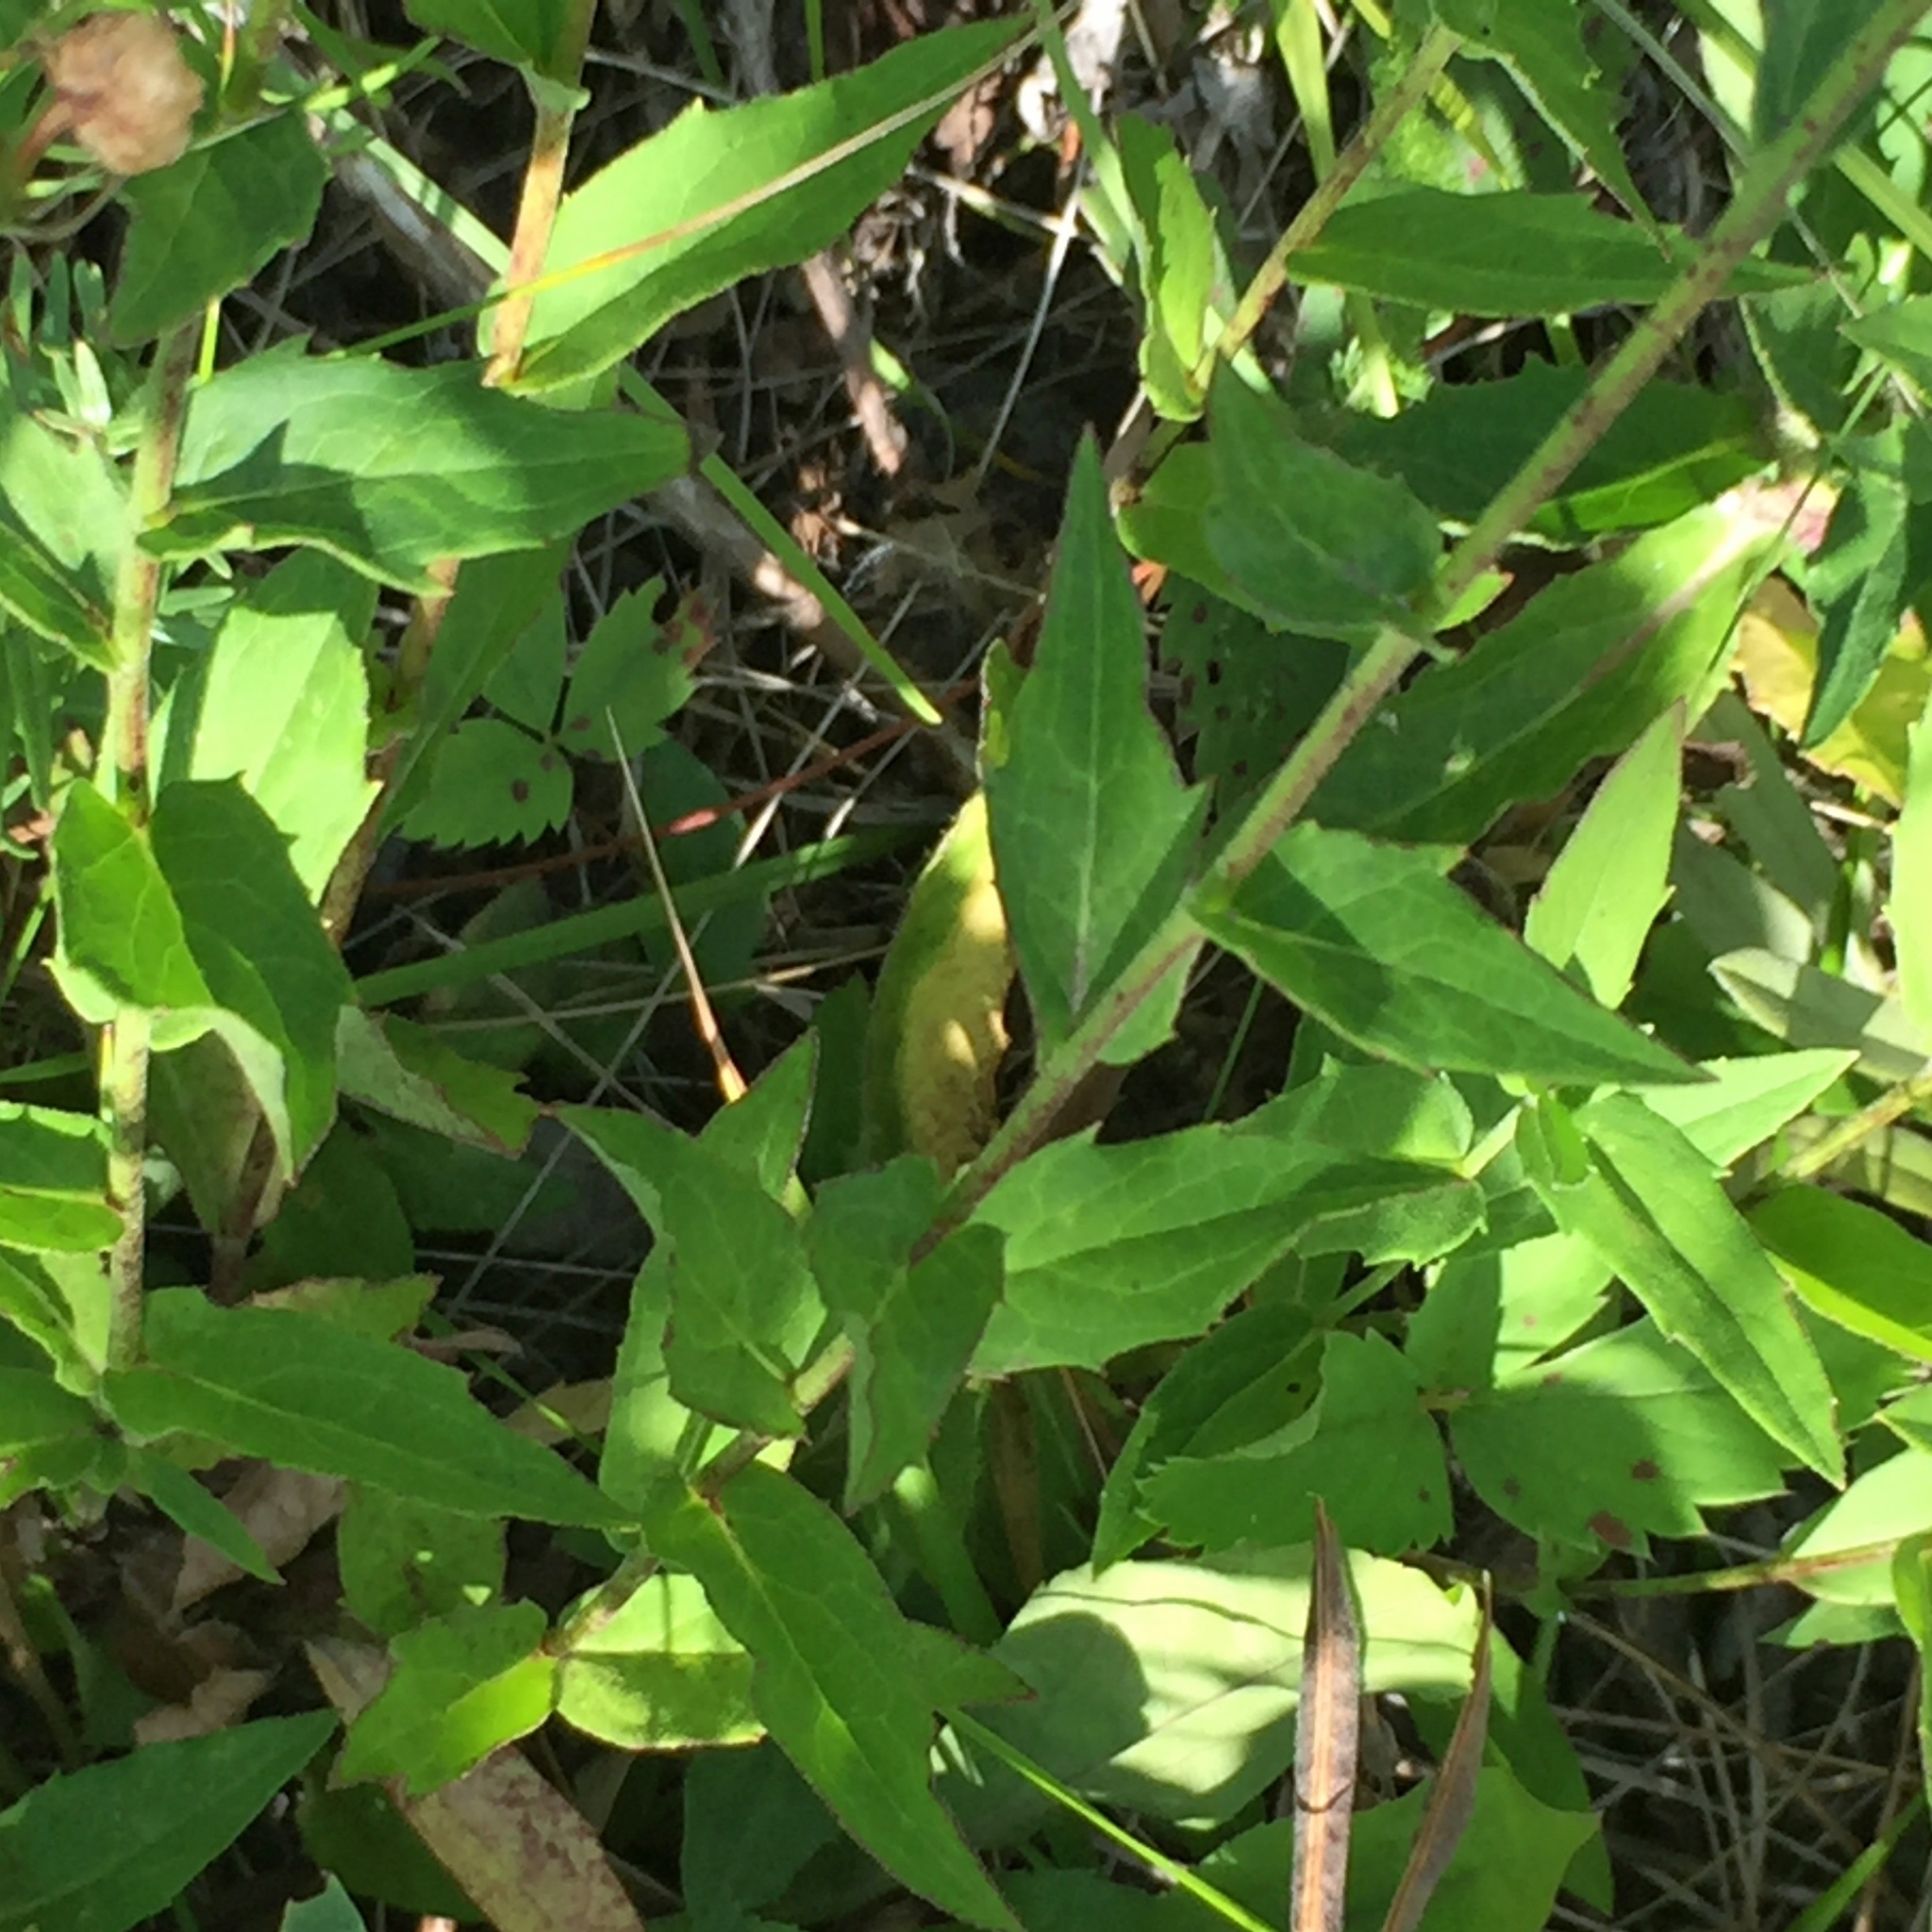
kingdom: Plantae
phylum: Tracheophyta
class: Magnoliopsida
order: Asterales
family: Asteraceae
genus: Hieracium
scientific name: Hieracium umbellatum
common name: Northern hawkweed
